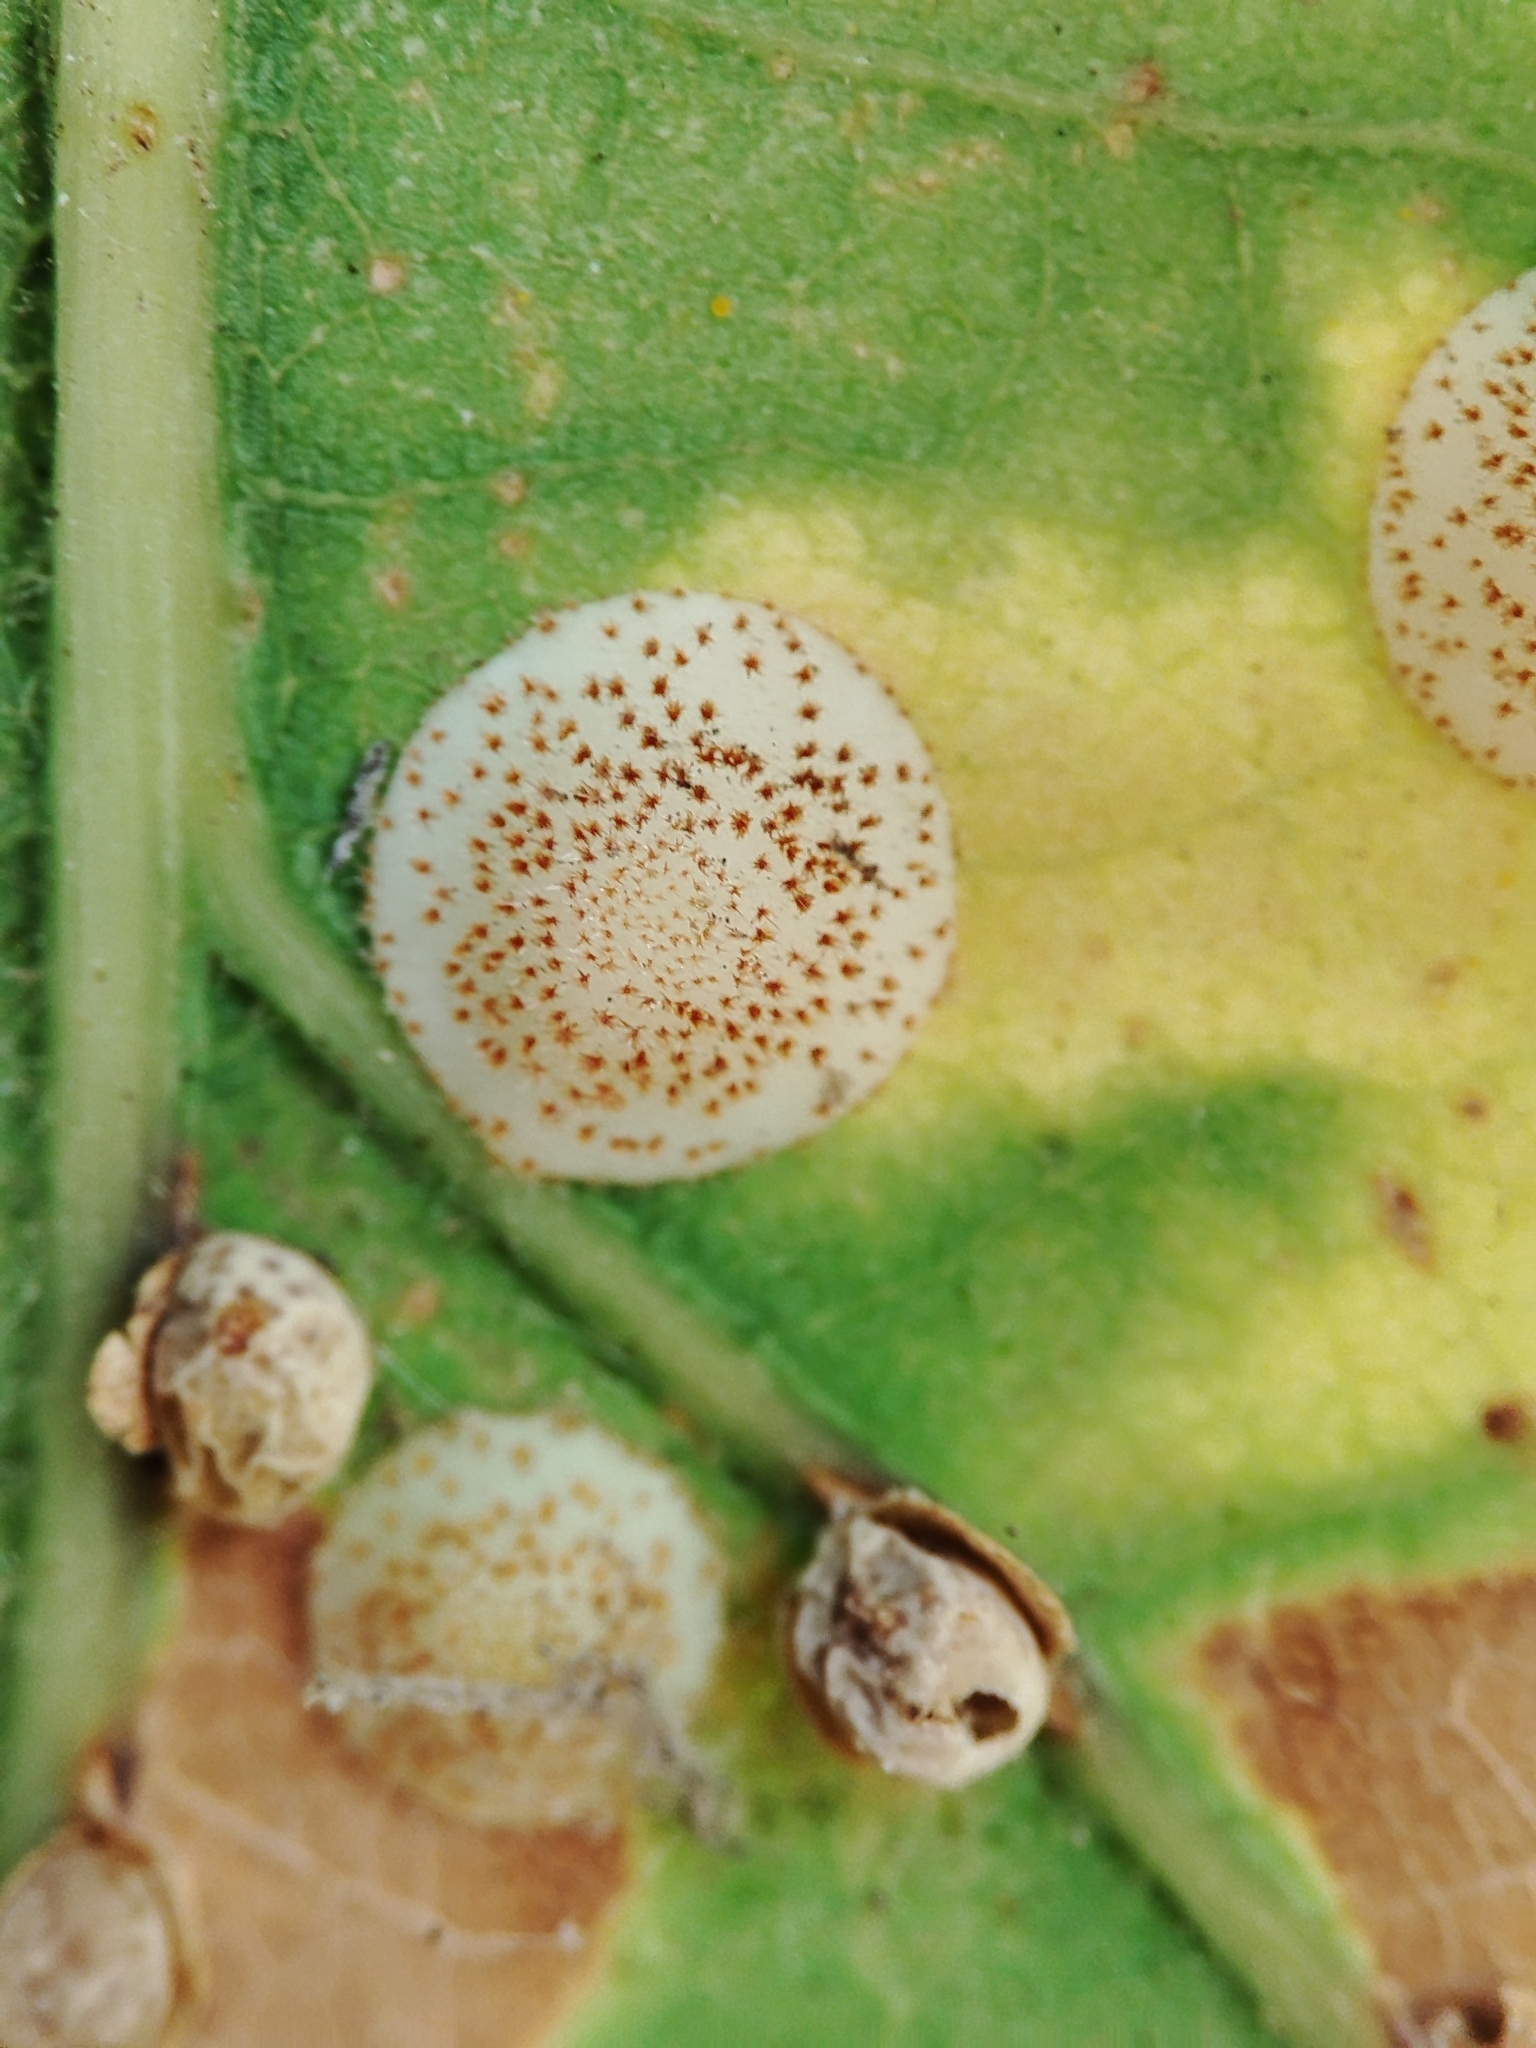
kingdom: Animalia
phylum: Arthropoda
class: Insecta
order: Hymenoptera
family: Cynipidae
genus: Neuroterus
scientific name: Neuroterus quercusbaccarum
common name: Common spangle gall
